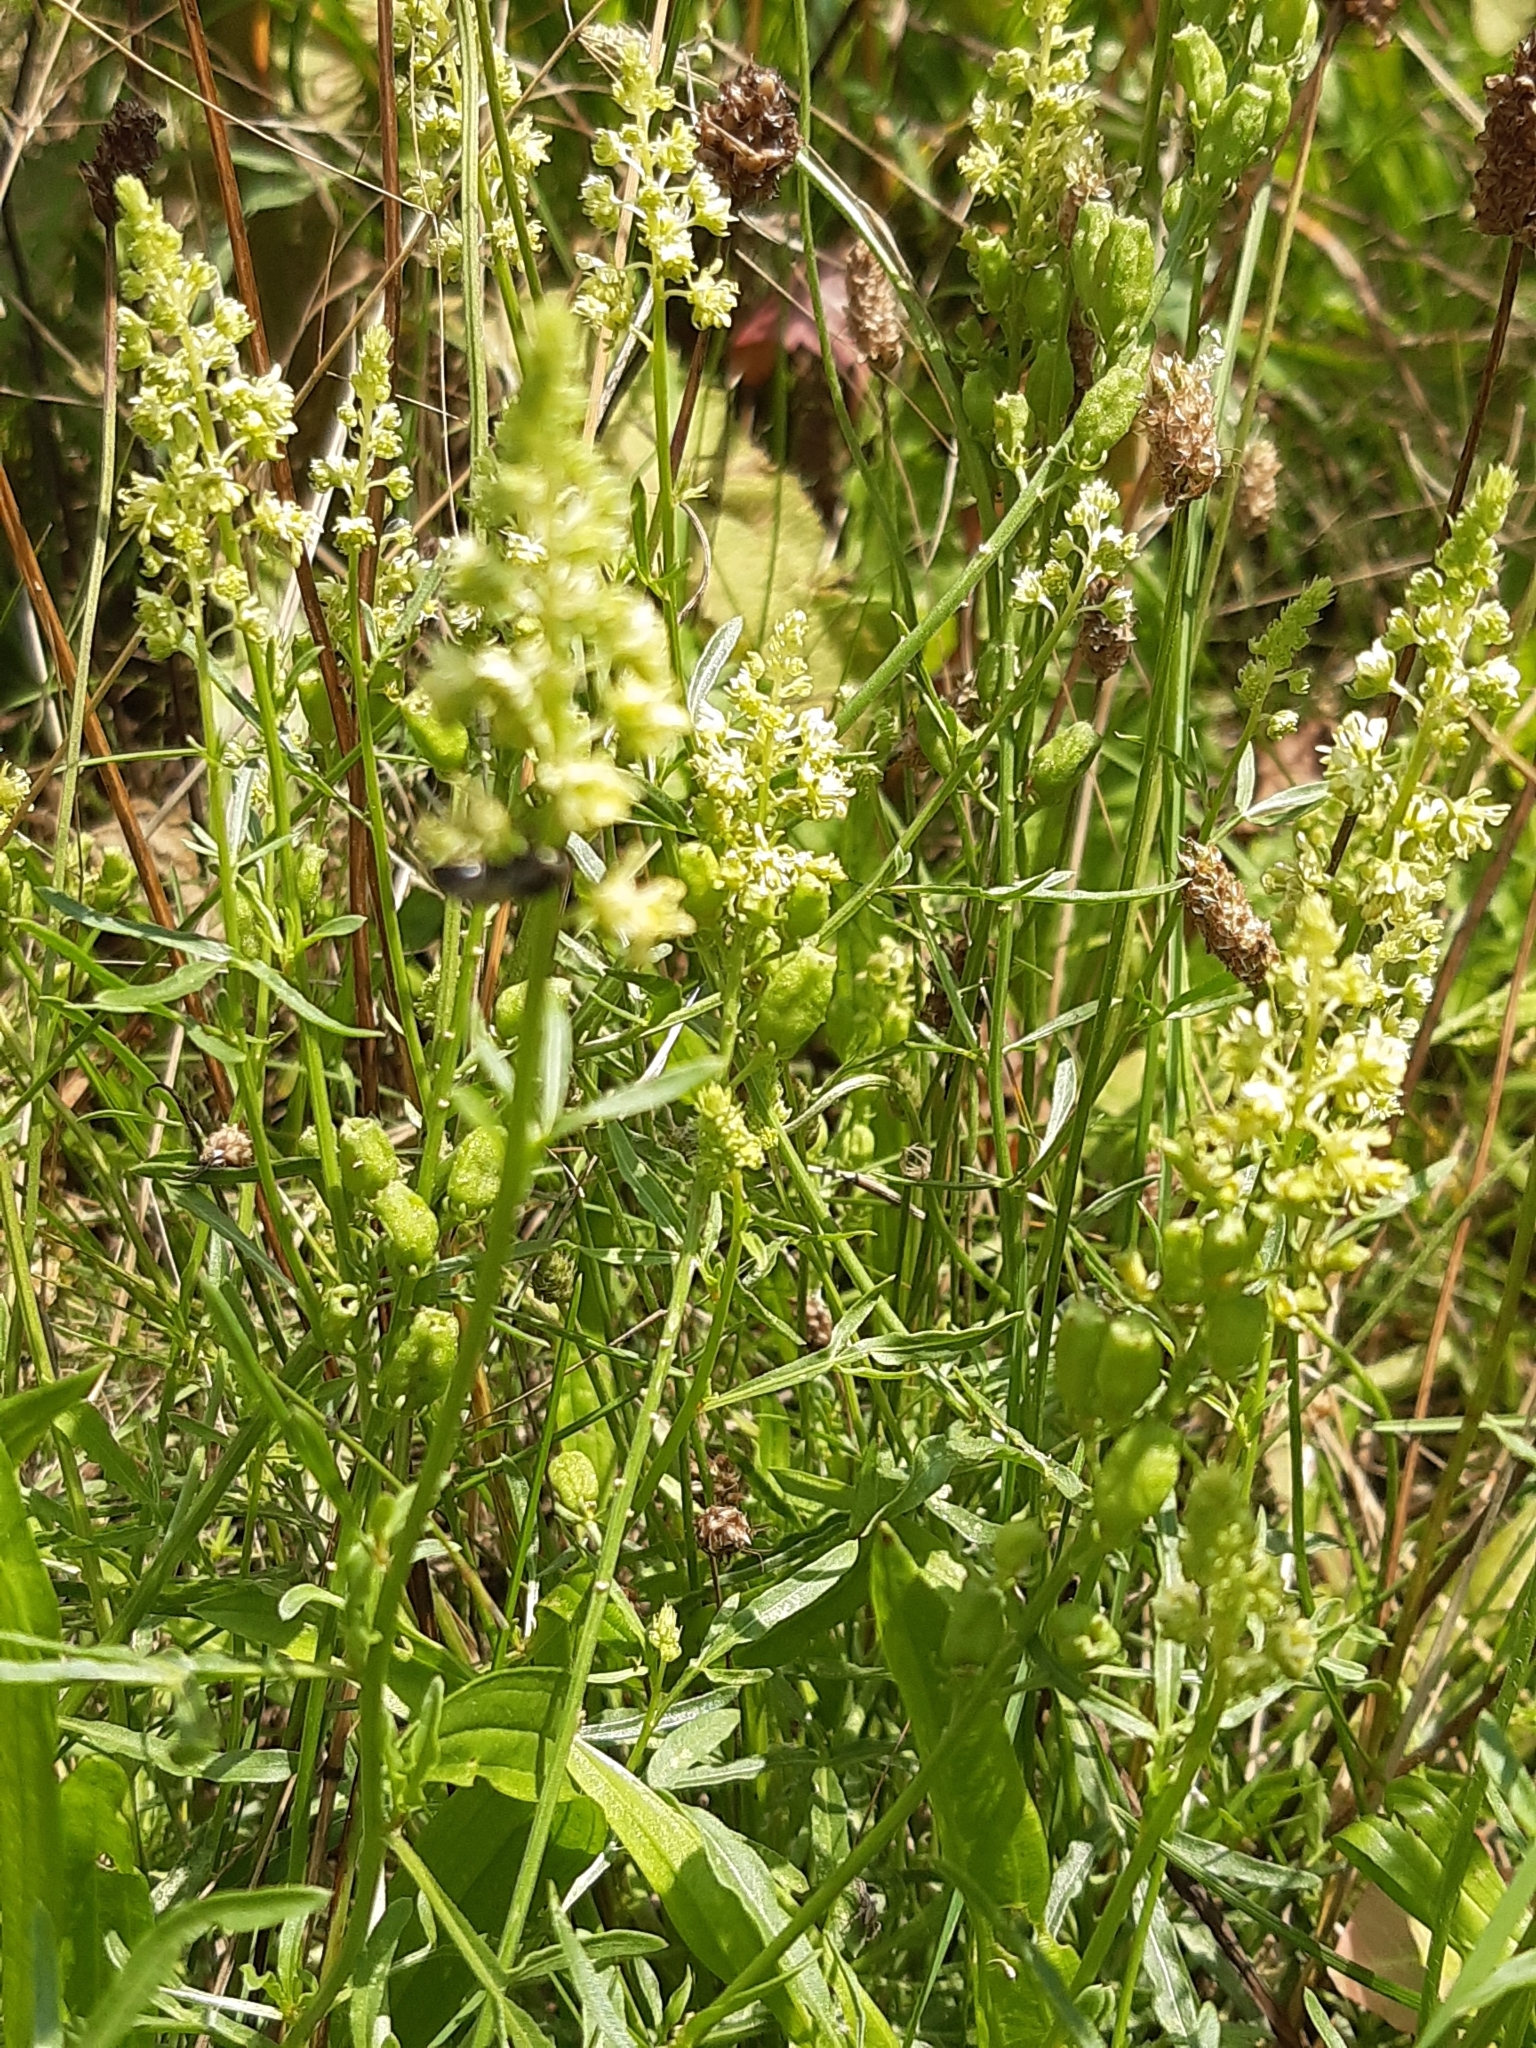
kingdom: Plantae
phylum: Tracheophyta
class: Magnoliopsida
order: Brassicales
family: Resedaceae
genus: Reseda
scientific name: Reseda lutea
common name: Wild mignonette
